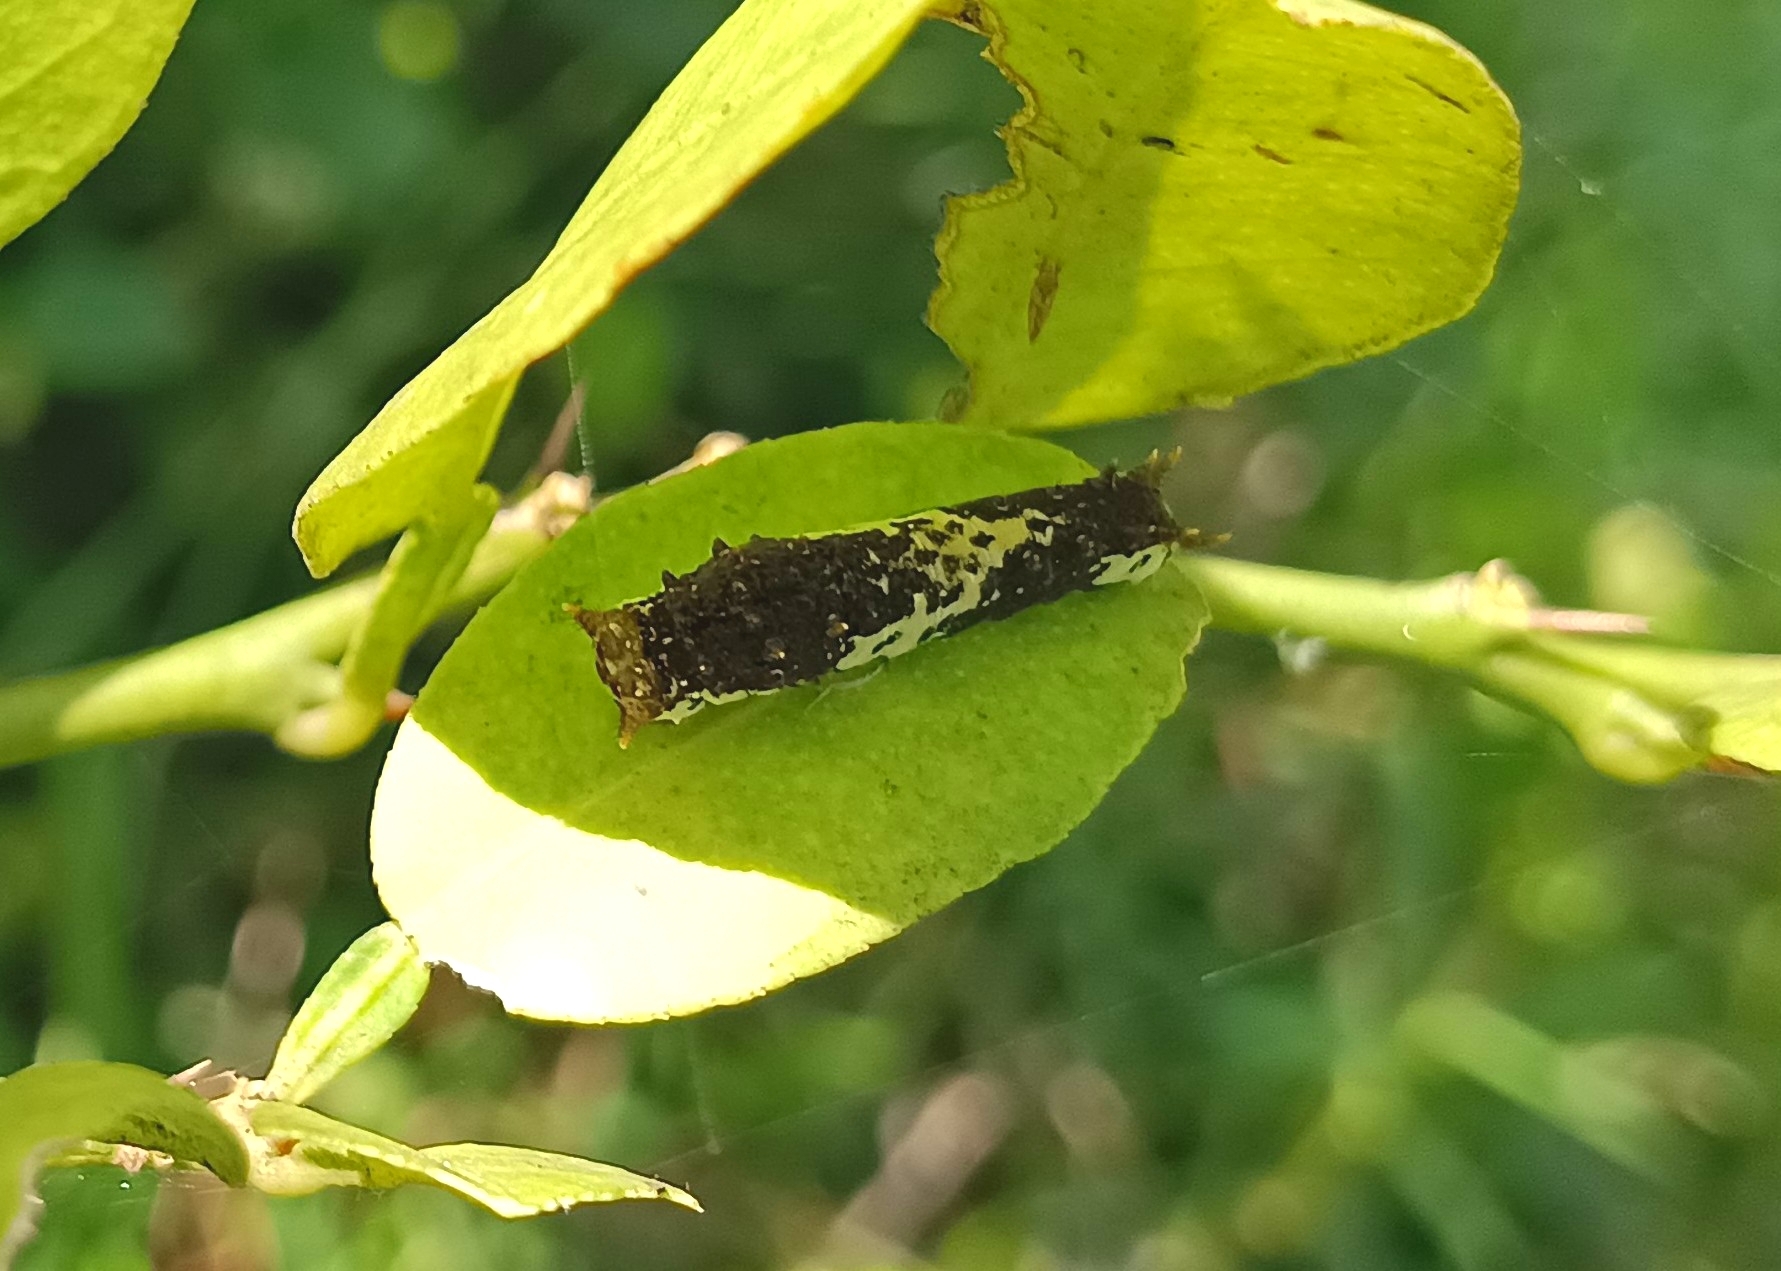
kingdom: Animalia
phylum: Arthropoda
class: Insecta
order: Lepidoptera
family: Papilionidae
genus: Papilio
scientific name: Papilio demoleus
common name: Lime butterfly
